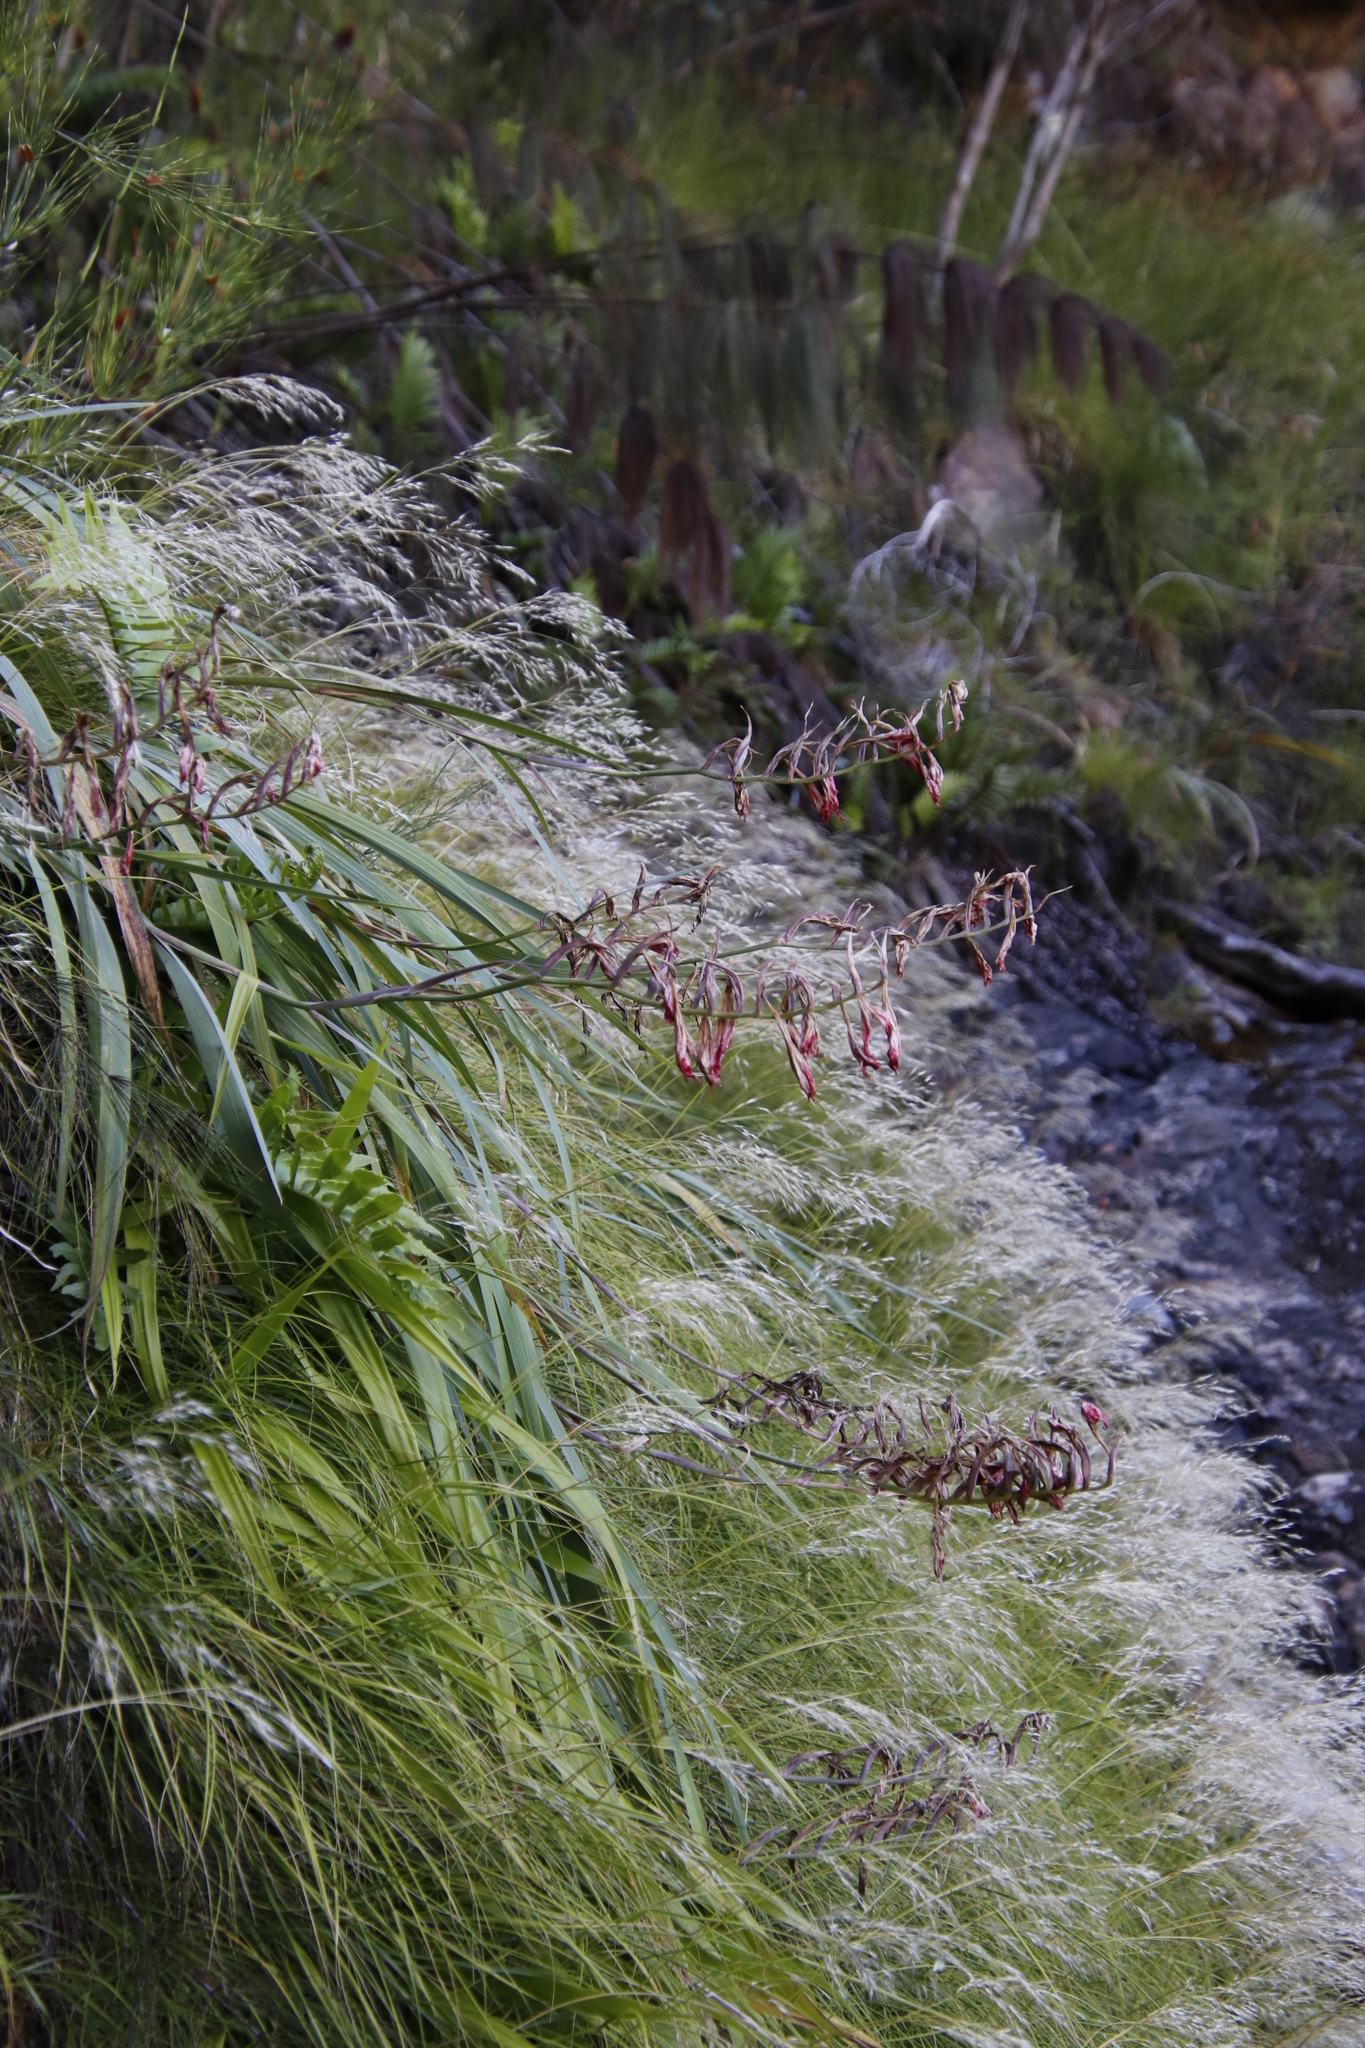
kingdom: Plantae
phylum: Tracheophyta
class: Liliopsida
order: Asparagales
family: Iridaceae
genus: Gladiolus
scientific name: Gladiolus cardinalis
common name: New year-lily
